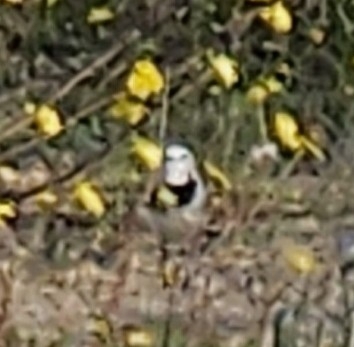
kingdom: Animalia
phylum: Chordata
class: Aves
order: Passeriformes
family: Motacillidae
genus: Motacilla
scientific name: Motacilla alba
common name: White wagtail
